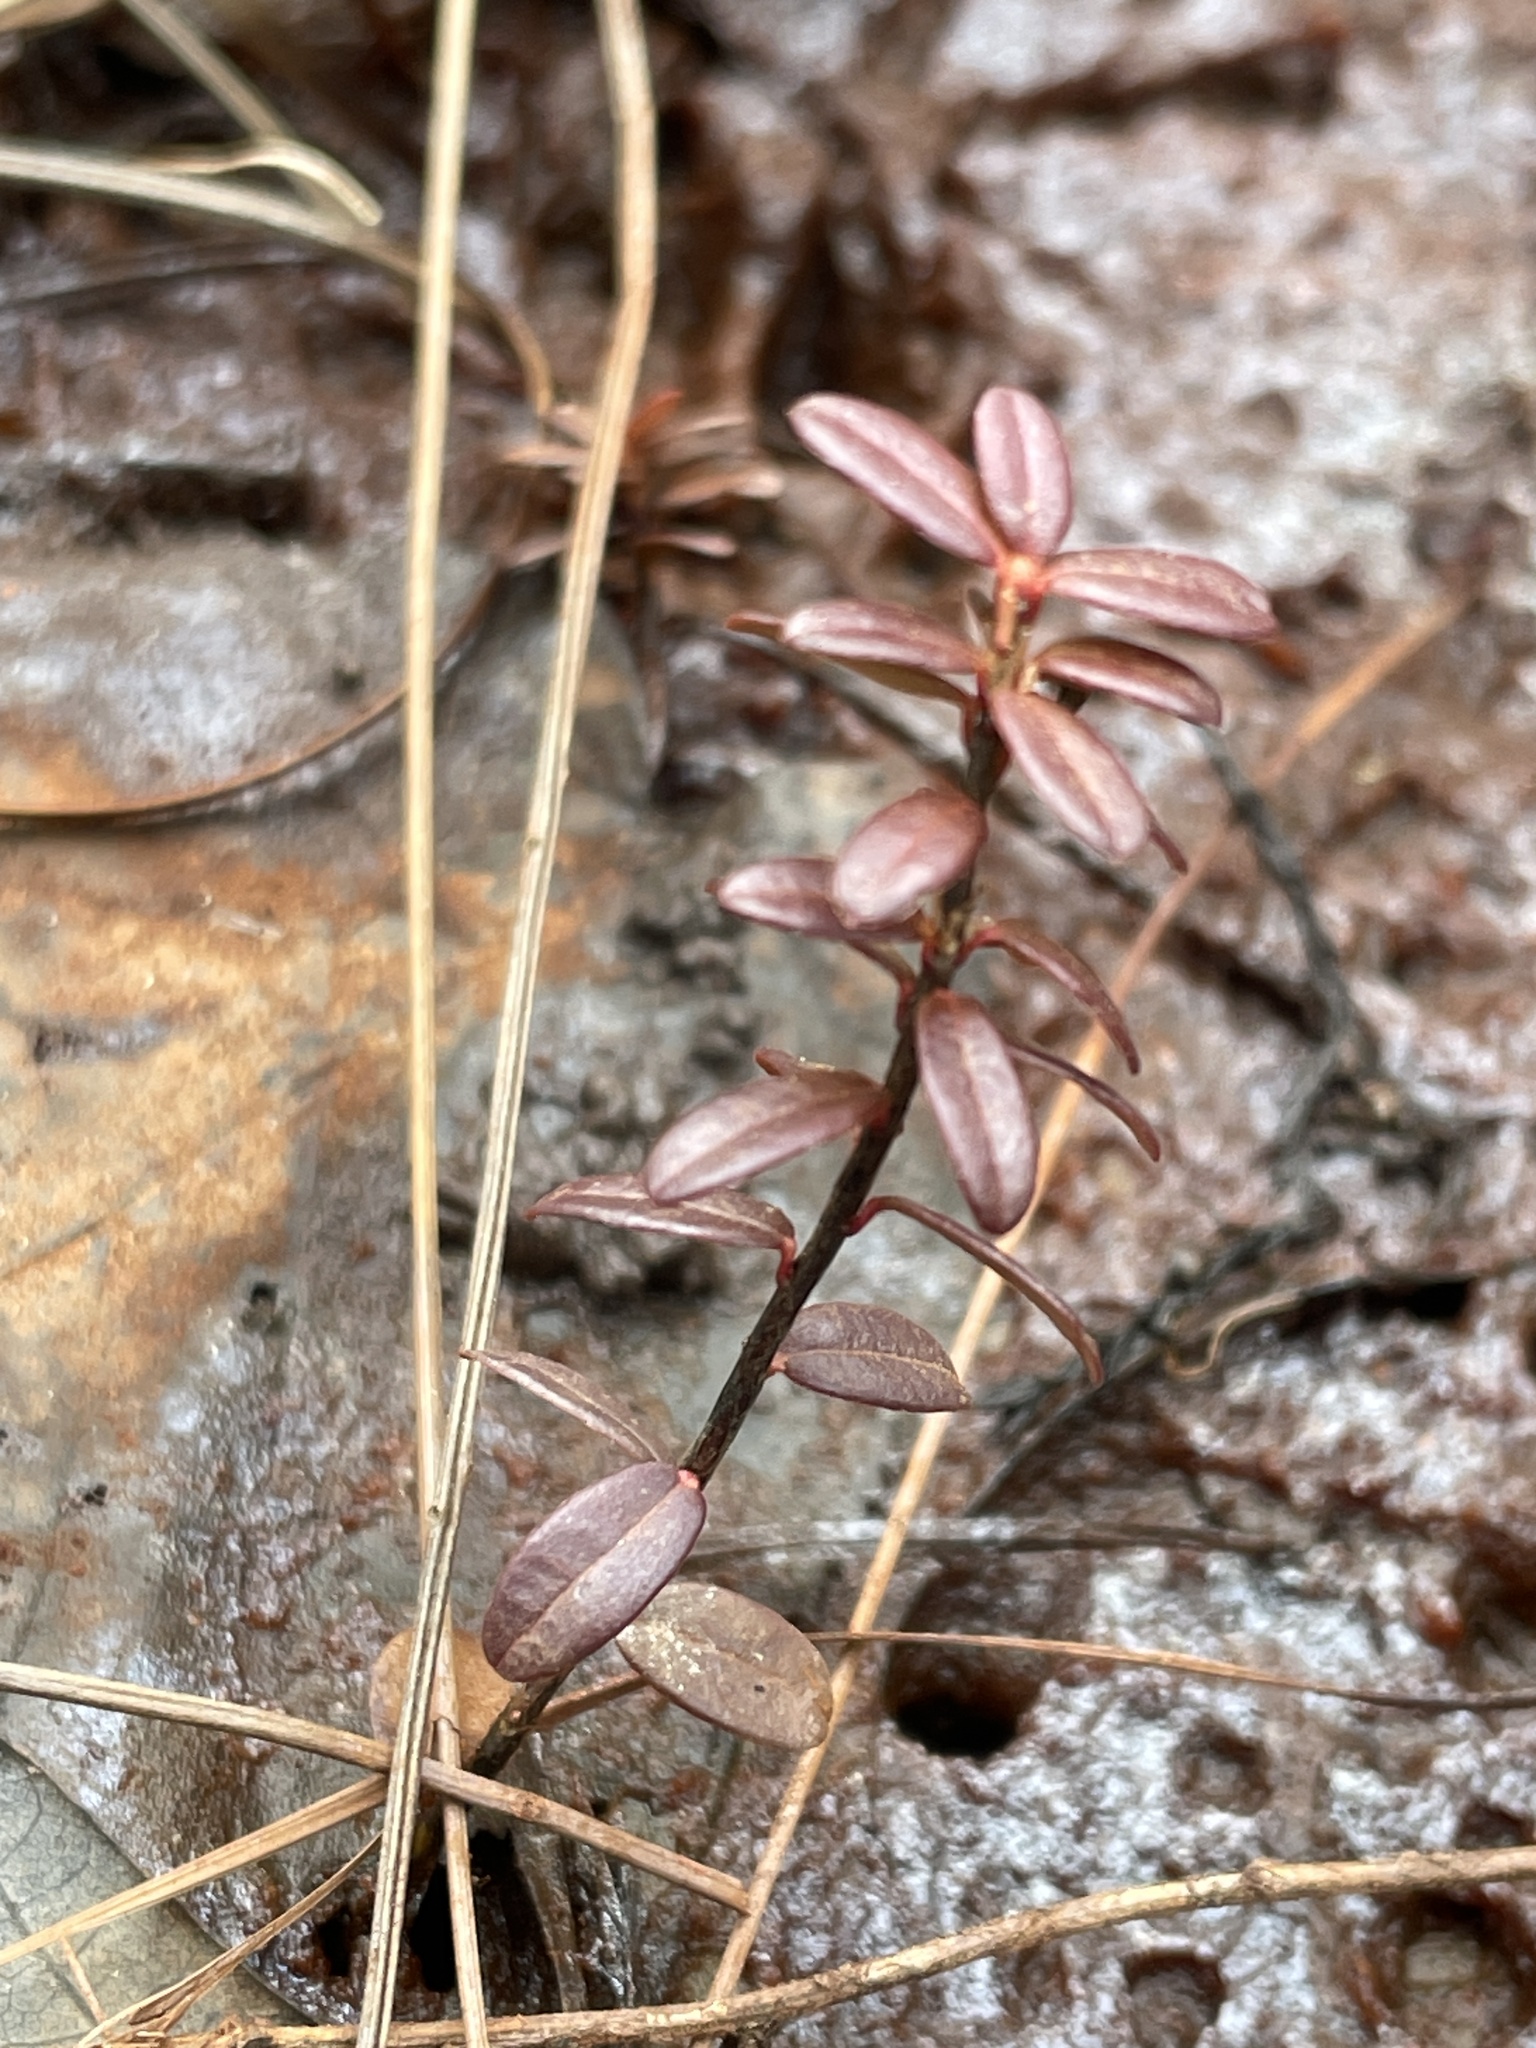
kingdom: Plantae
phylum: Tracheophyta
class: Magnoliopsida
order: Ericales
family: Ericaceae
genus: Vaccinium
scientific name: Vaccinium macrocarpon
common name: American cranberry
